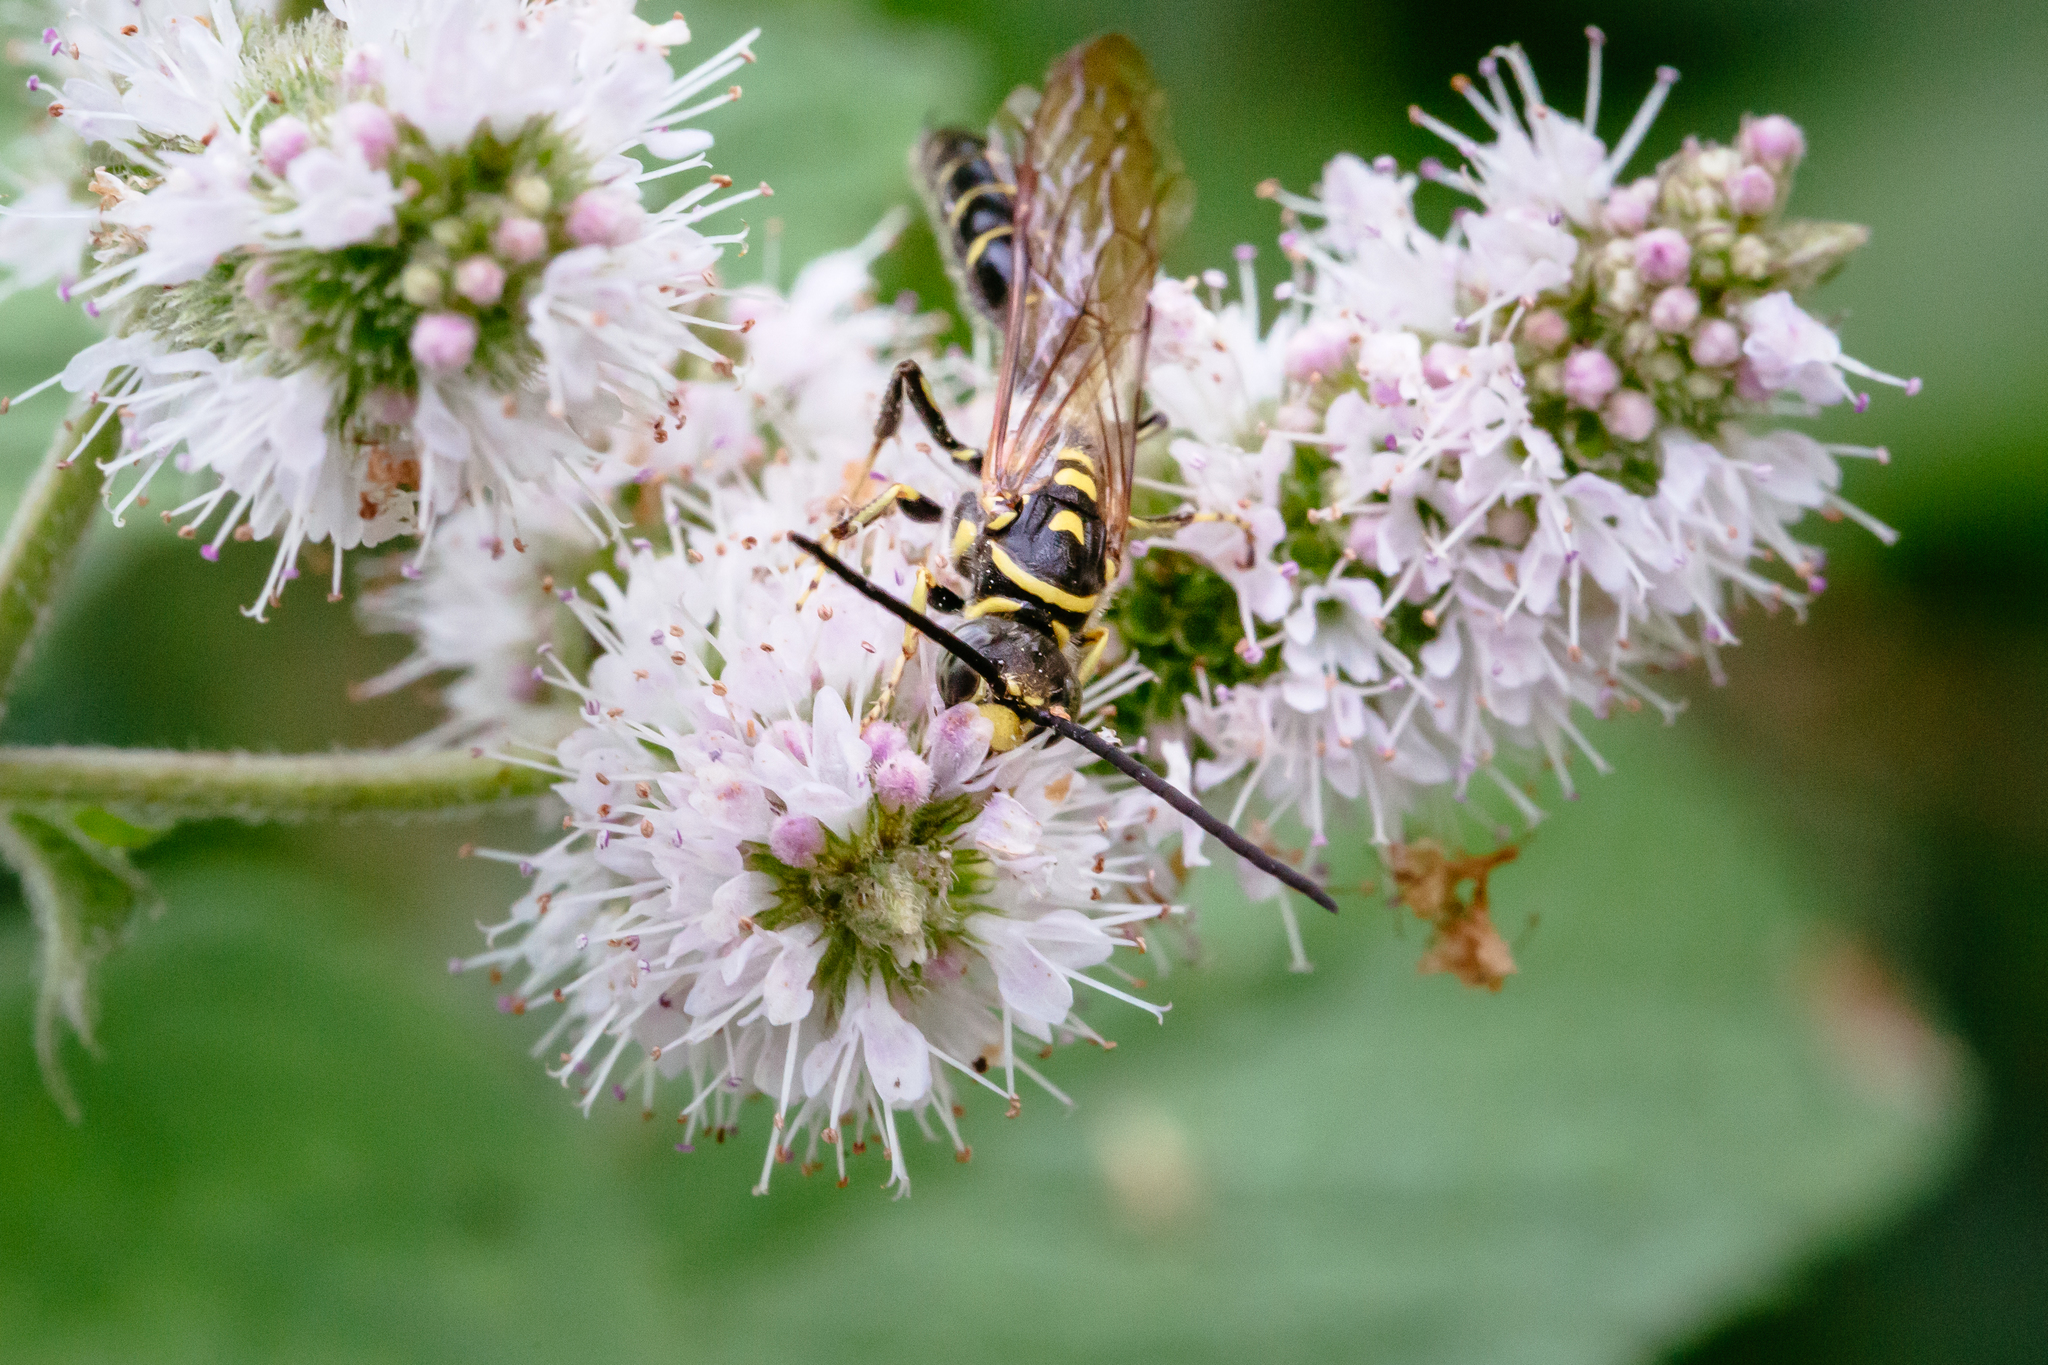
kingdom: Animalia
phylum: Arthropoda
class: Insecta
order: Hymenoptera
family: Tiphiidae
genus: Myzinum
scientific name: Myzinum
